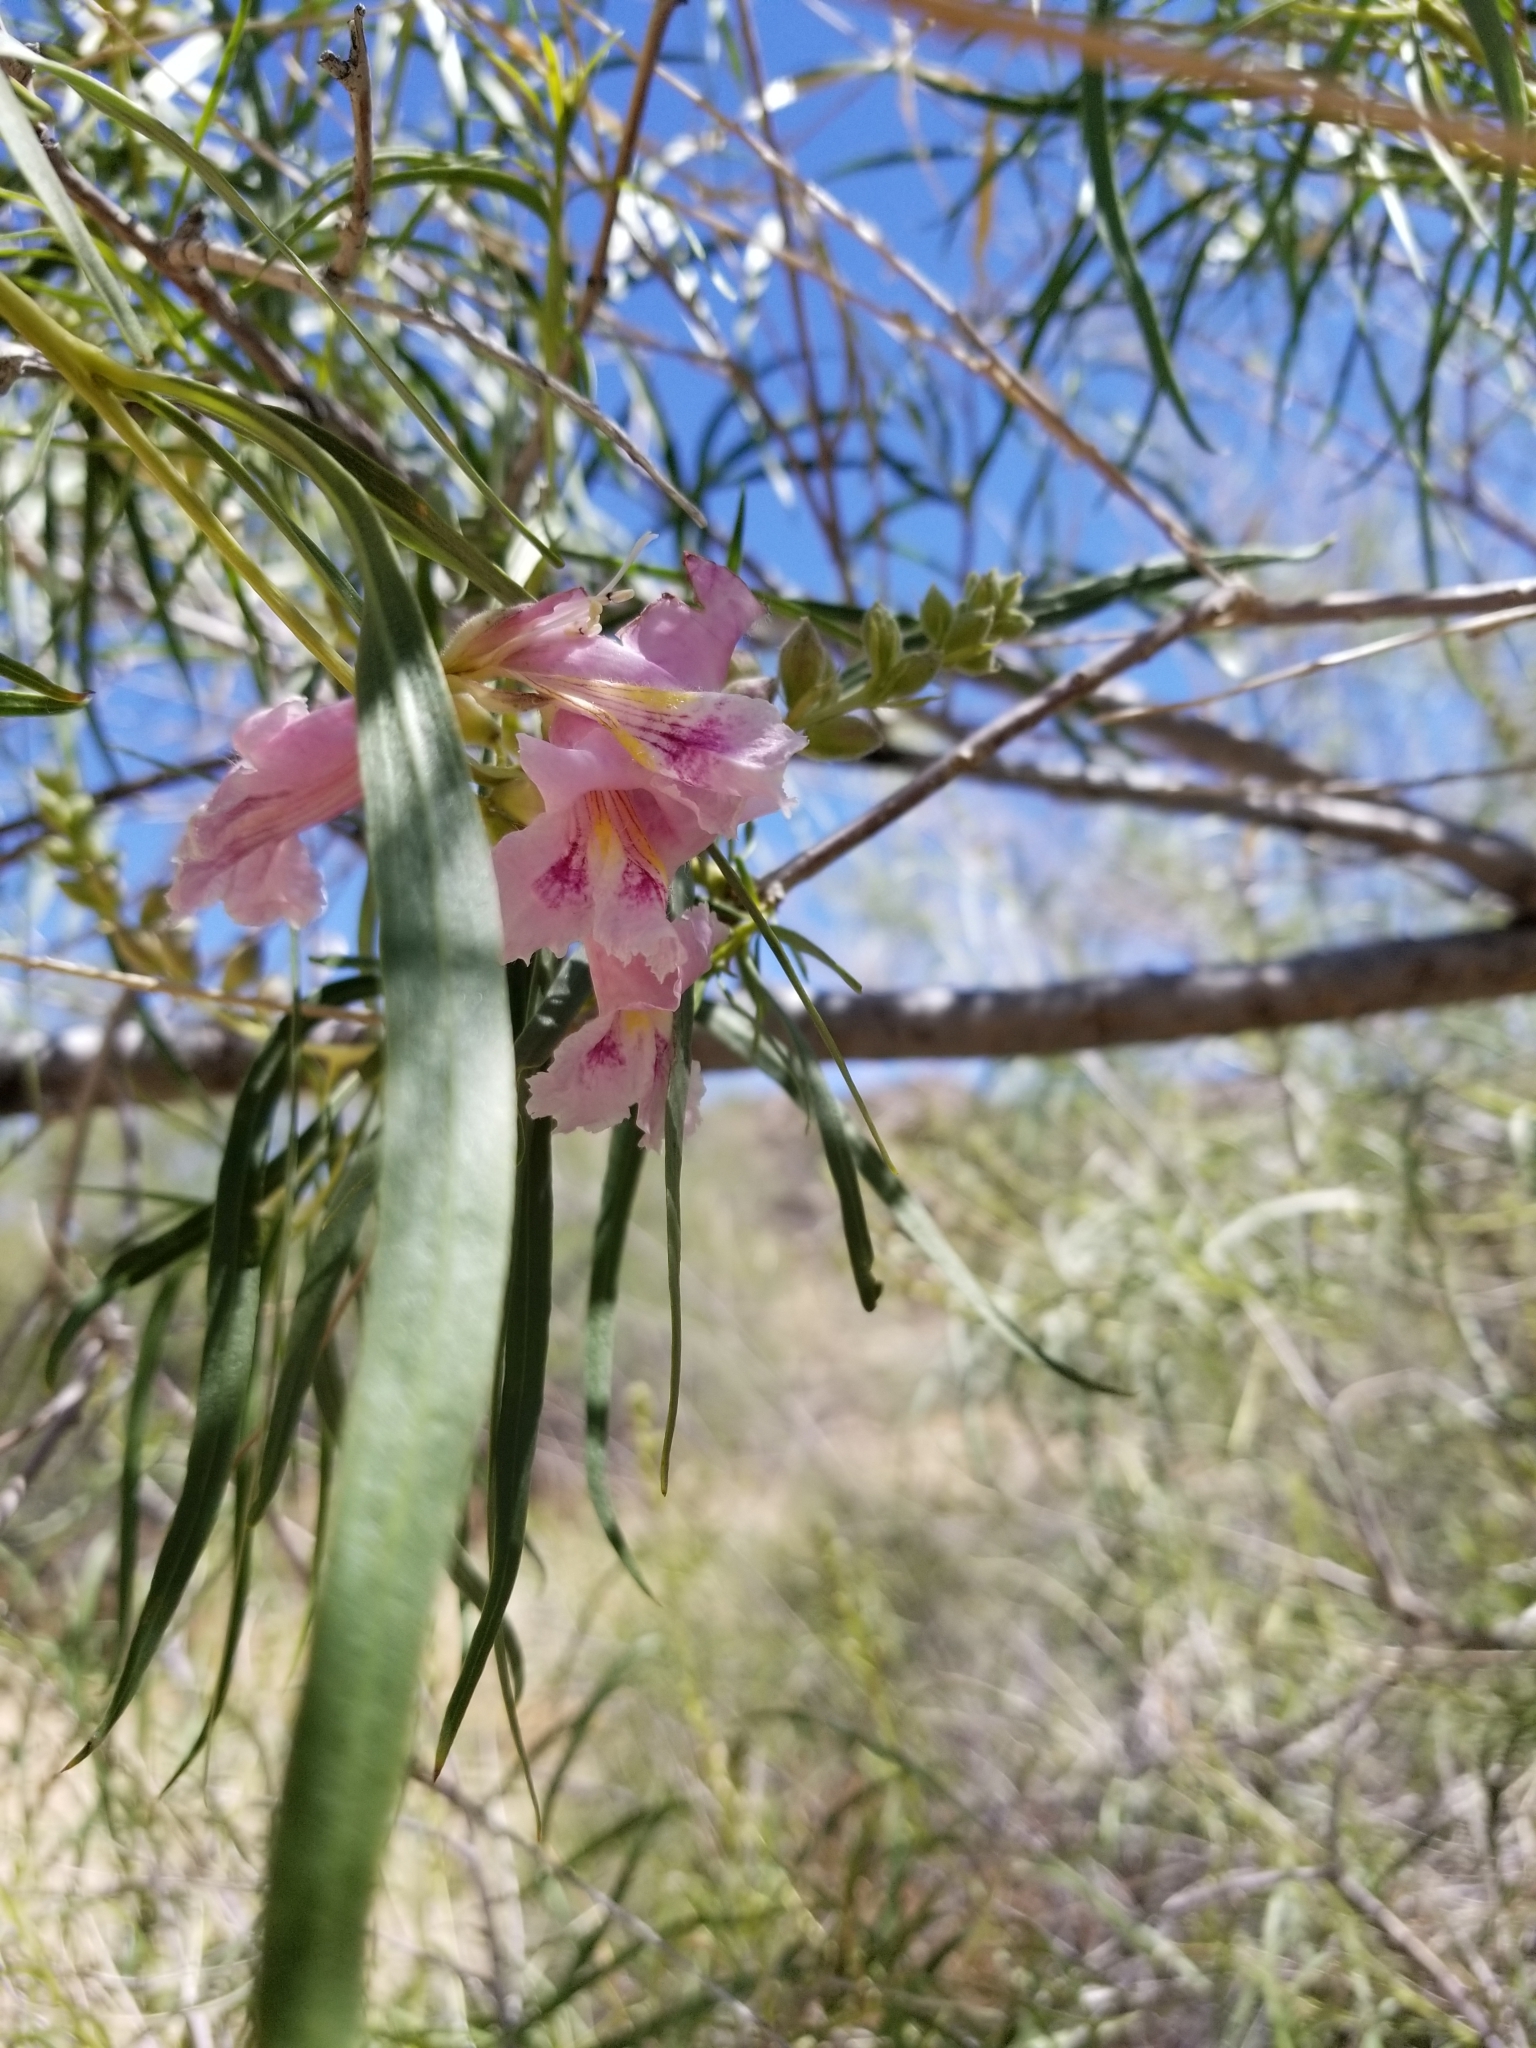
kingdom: Plantae
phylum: Tracheophyta
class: Magnoliopsida
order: Lamiales
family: Bignoniaceae
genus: Chilopsis
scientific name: Chilopsis linearis
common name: Desert-willow
